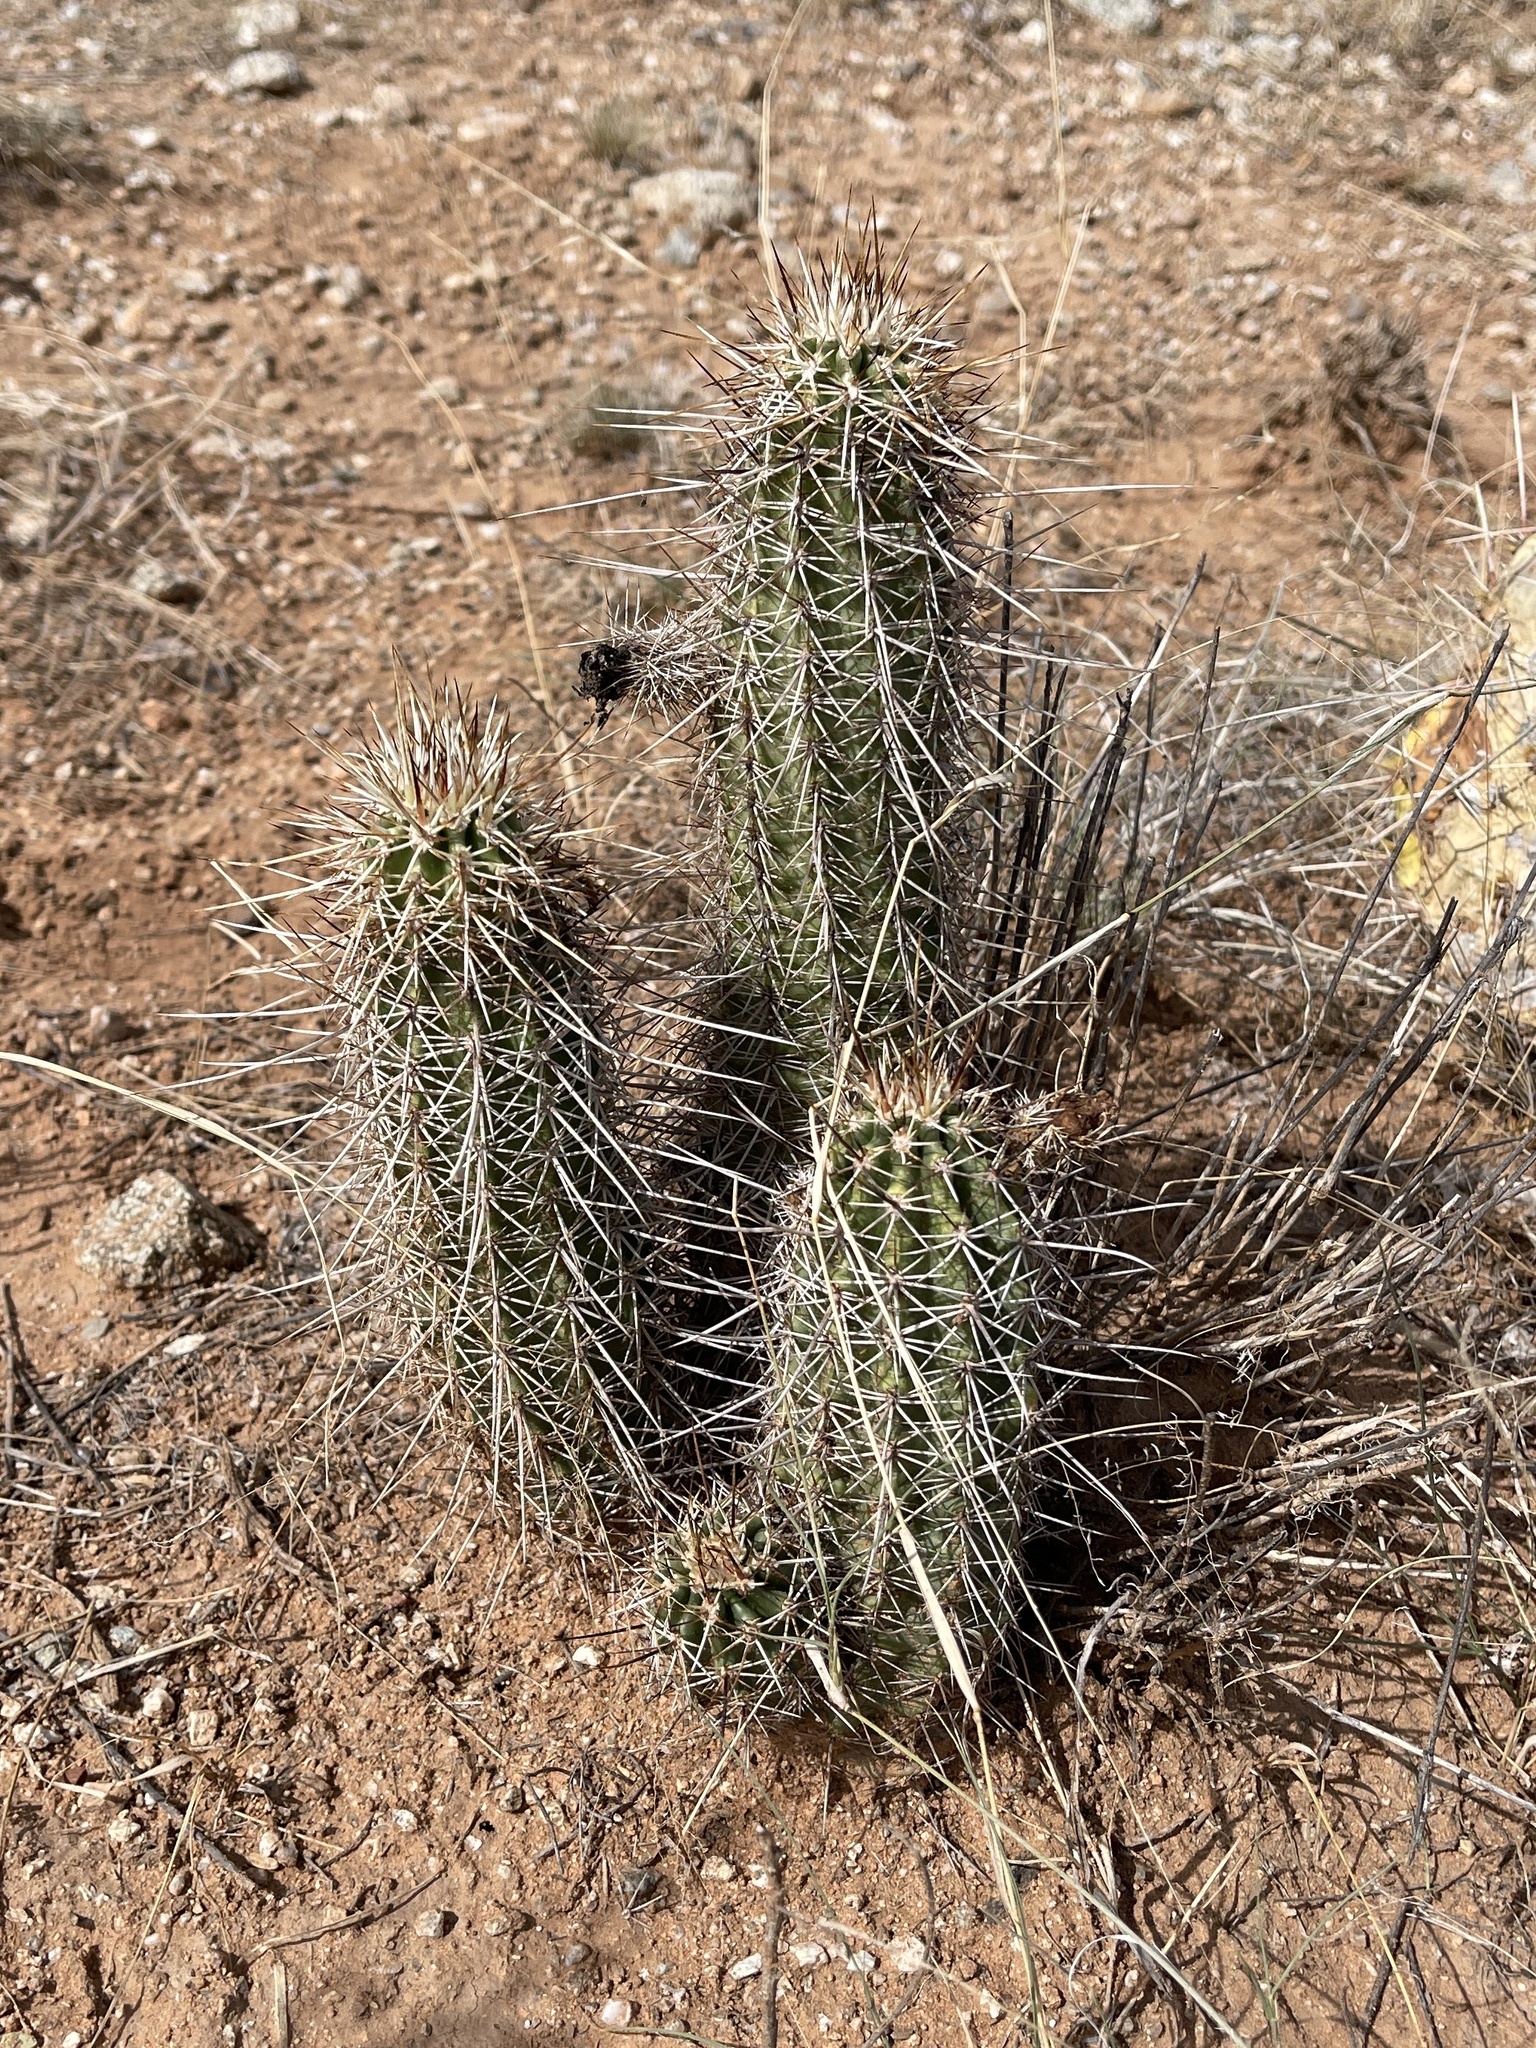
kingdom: Plantae
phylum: Tracheophyta
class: Magnoliopsida
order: Caryophyllales
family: Cactaceae
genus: Echinocereus
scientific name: Echinocereus fasciculatus
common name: Bundle hedgehog
